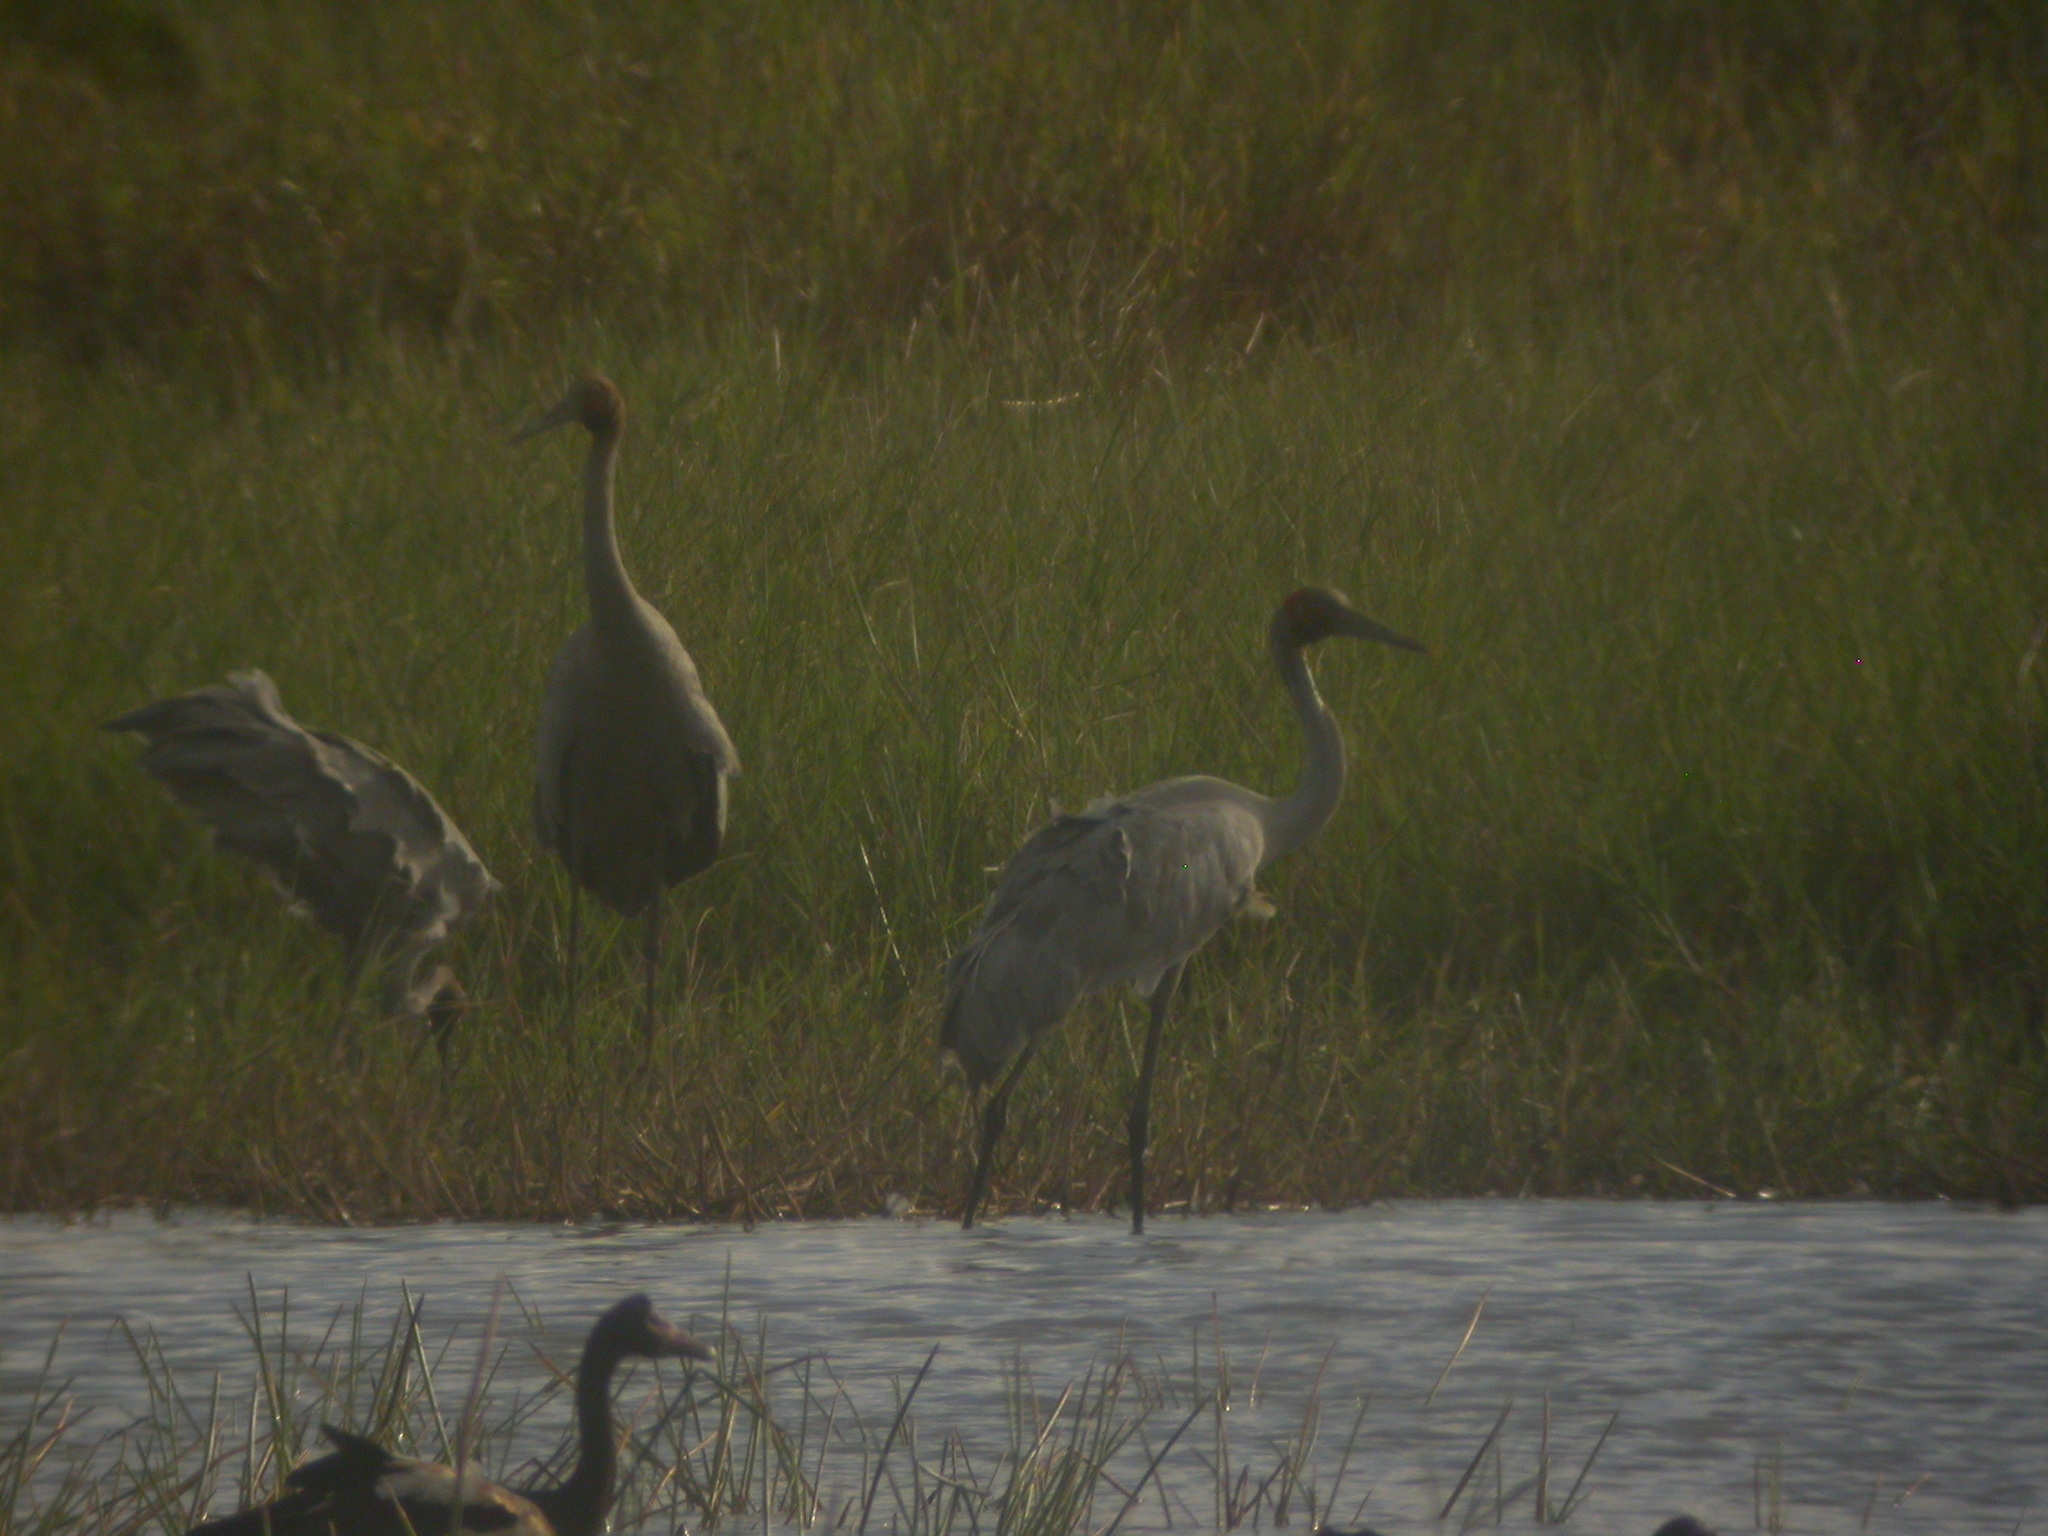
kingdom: Animalia
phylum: Chordata
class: Aves
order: Gruiformes
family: Gruidae
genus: Grus
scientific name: Grus rubicunda
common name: Brolga
